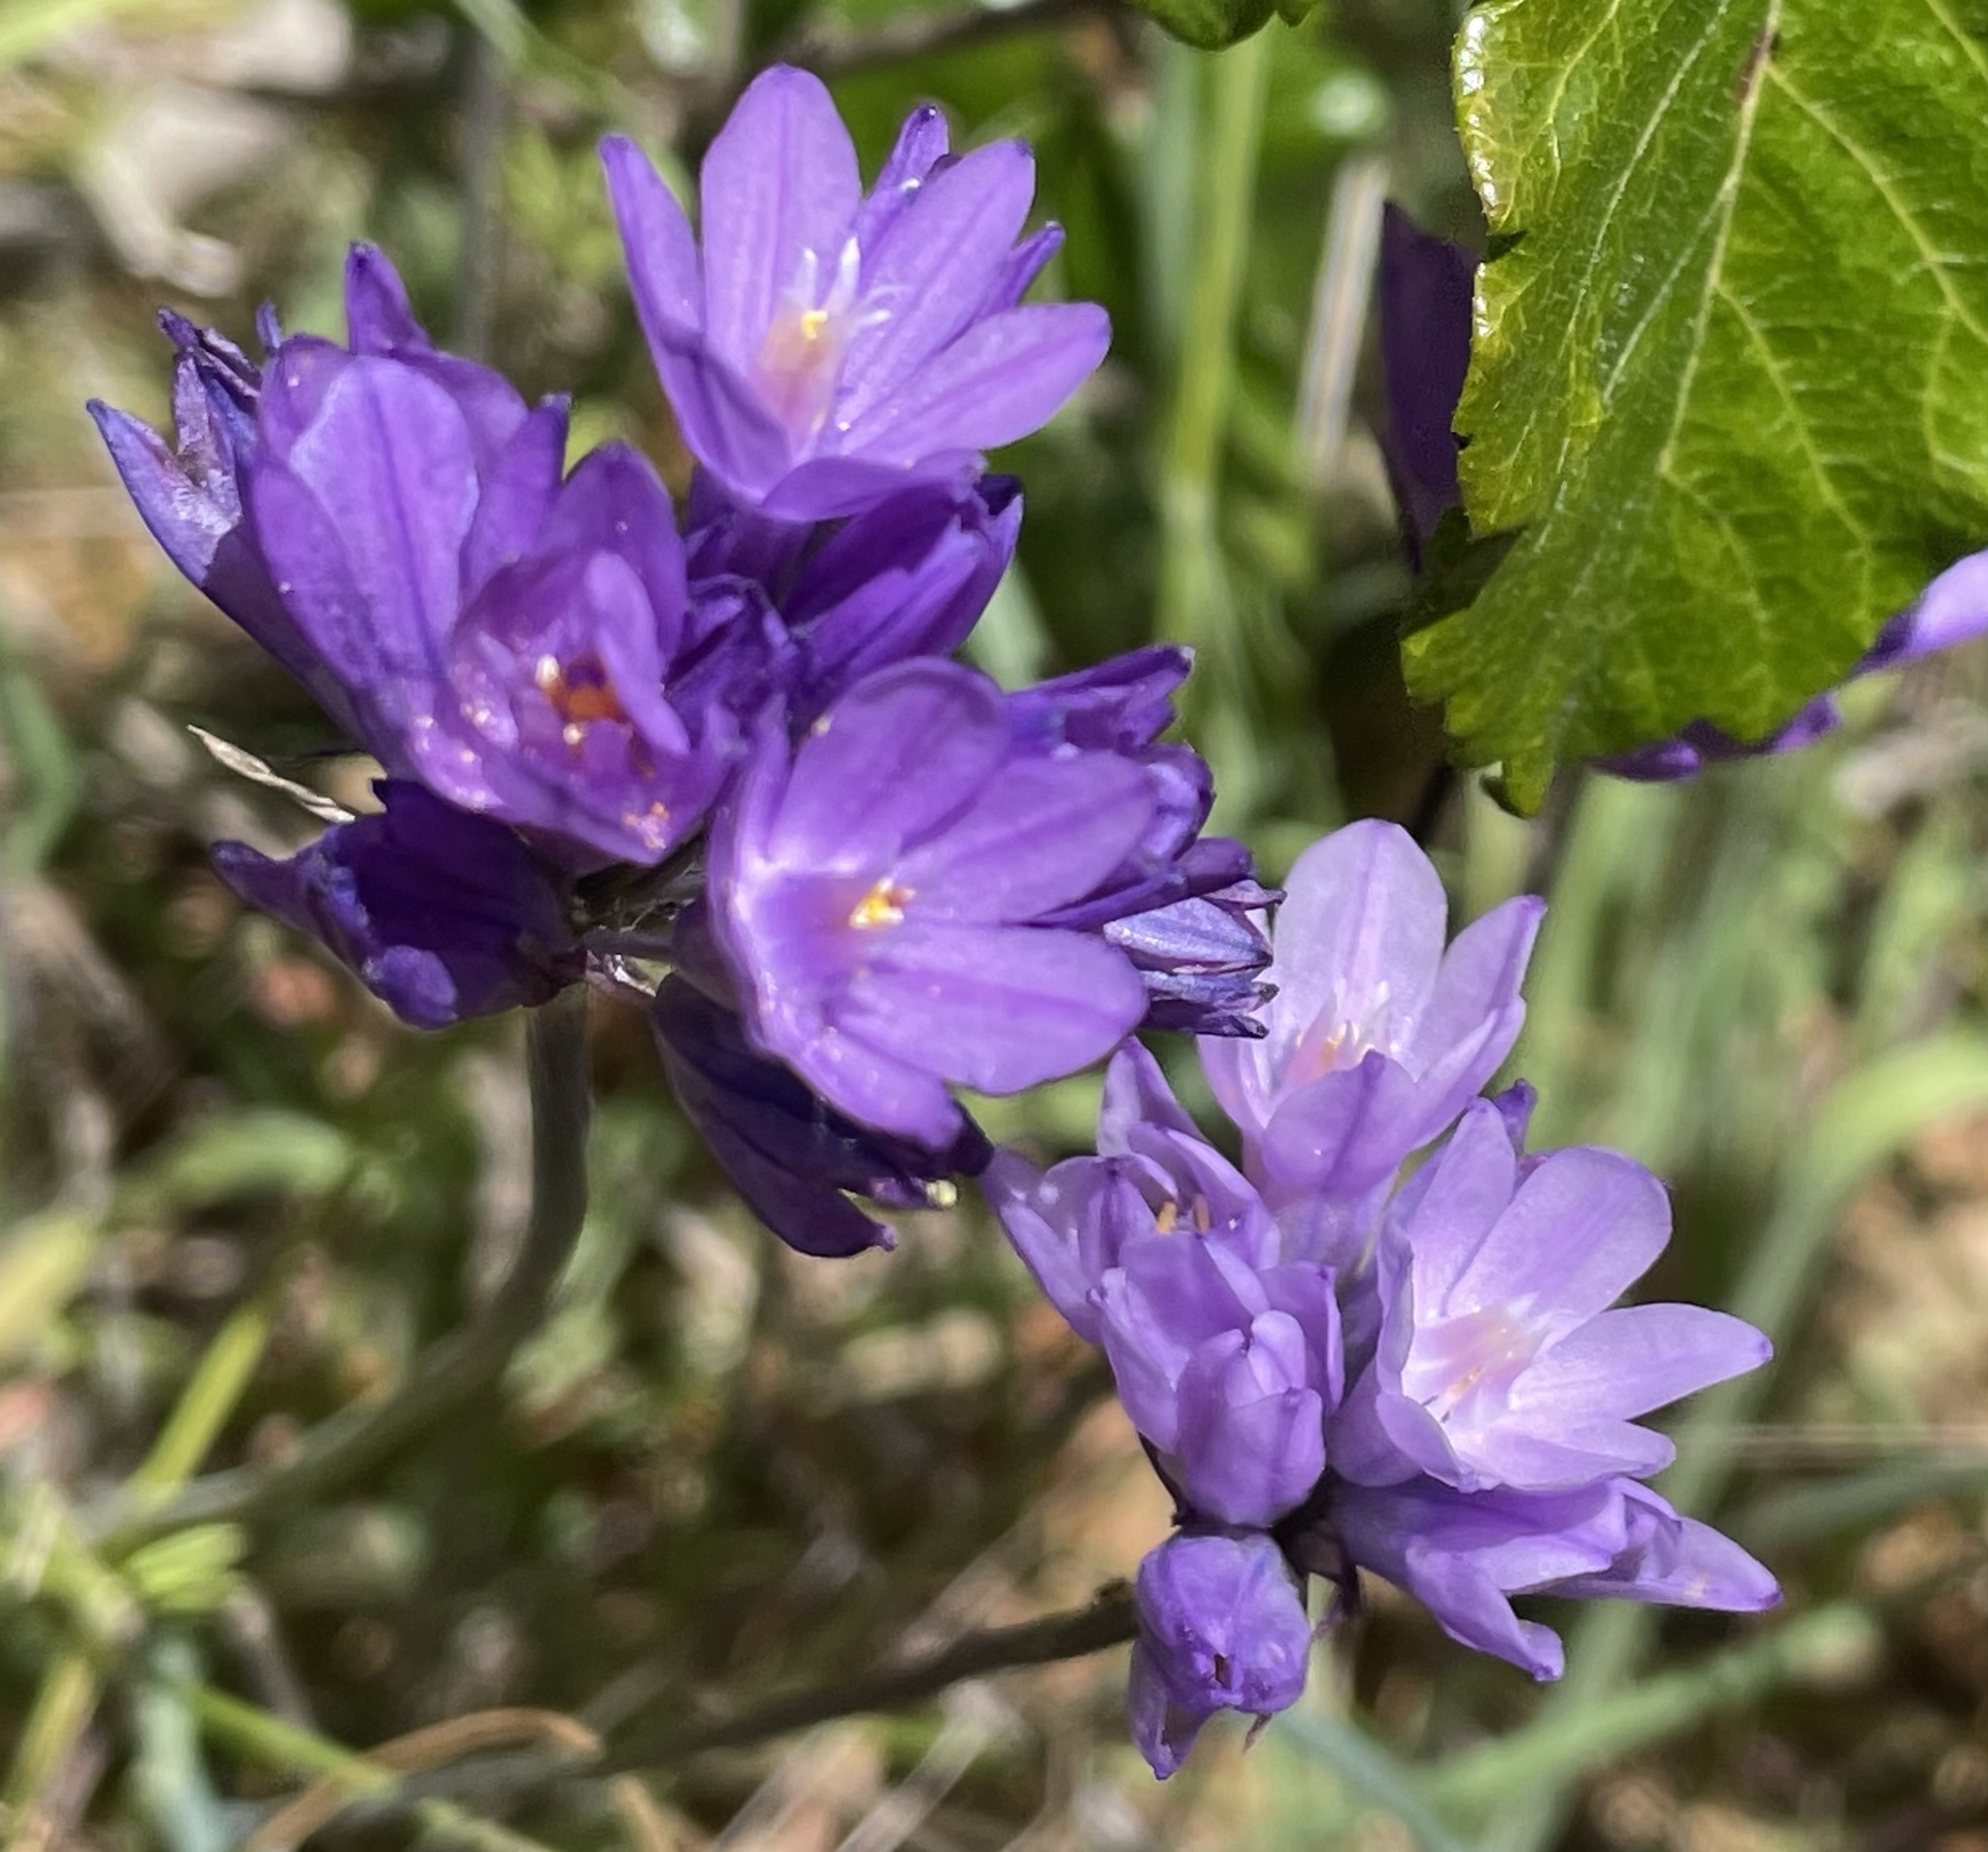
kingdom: Plantae
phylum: Tracheophyta
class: Liliopsida
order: Asparagales
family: Asparagaceae
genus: Dipterostemon
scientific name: Dipterostemon capitatus
